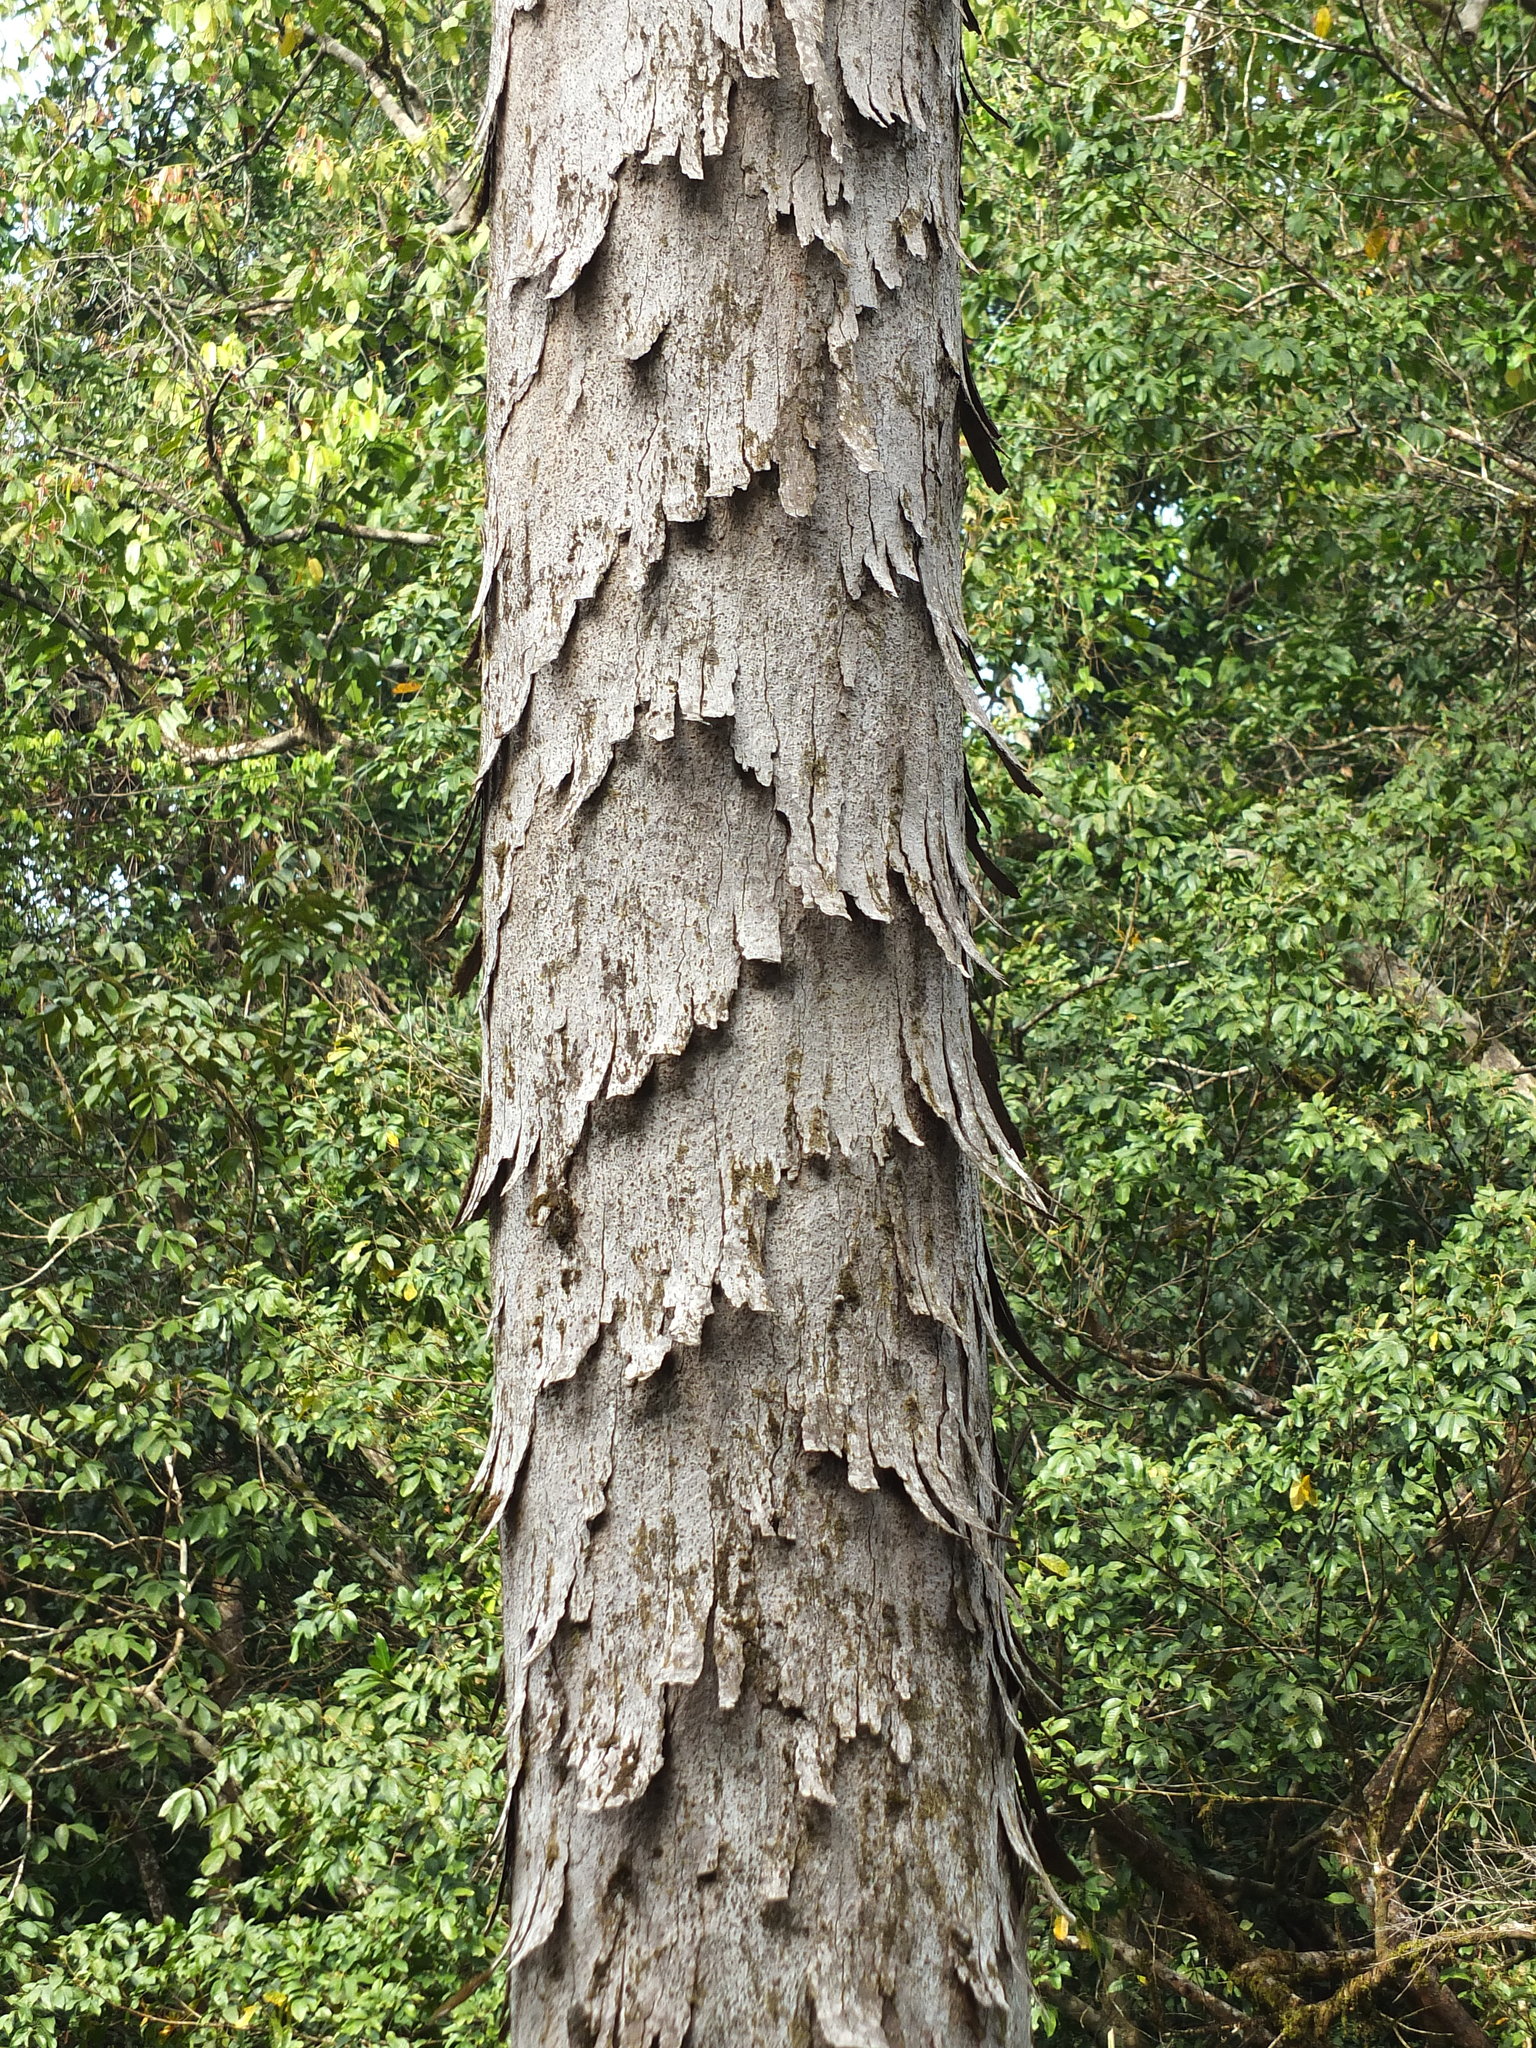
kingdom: Plantae
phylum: Tracheophyta
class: Magnoliopsida
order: Sapindales
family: Burseraceae
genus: Canarium
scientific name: Canarium strictum
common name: Indian white-mahogany
